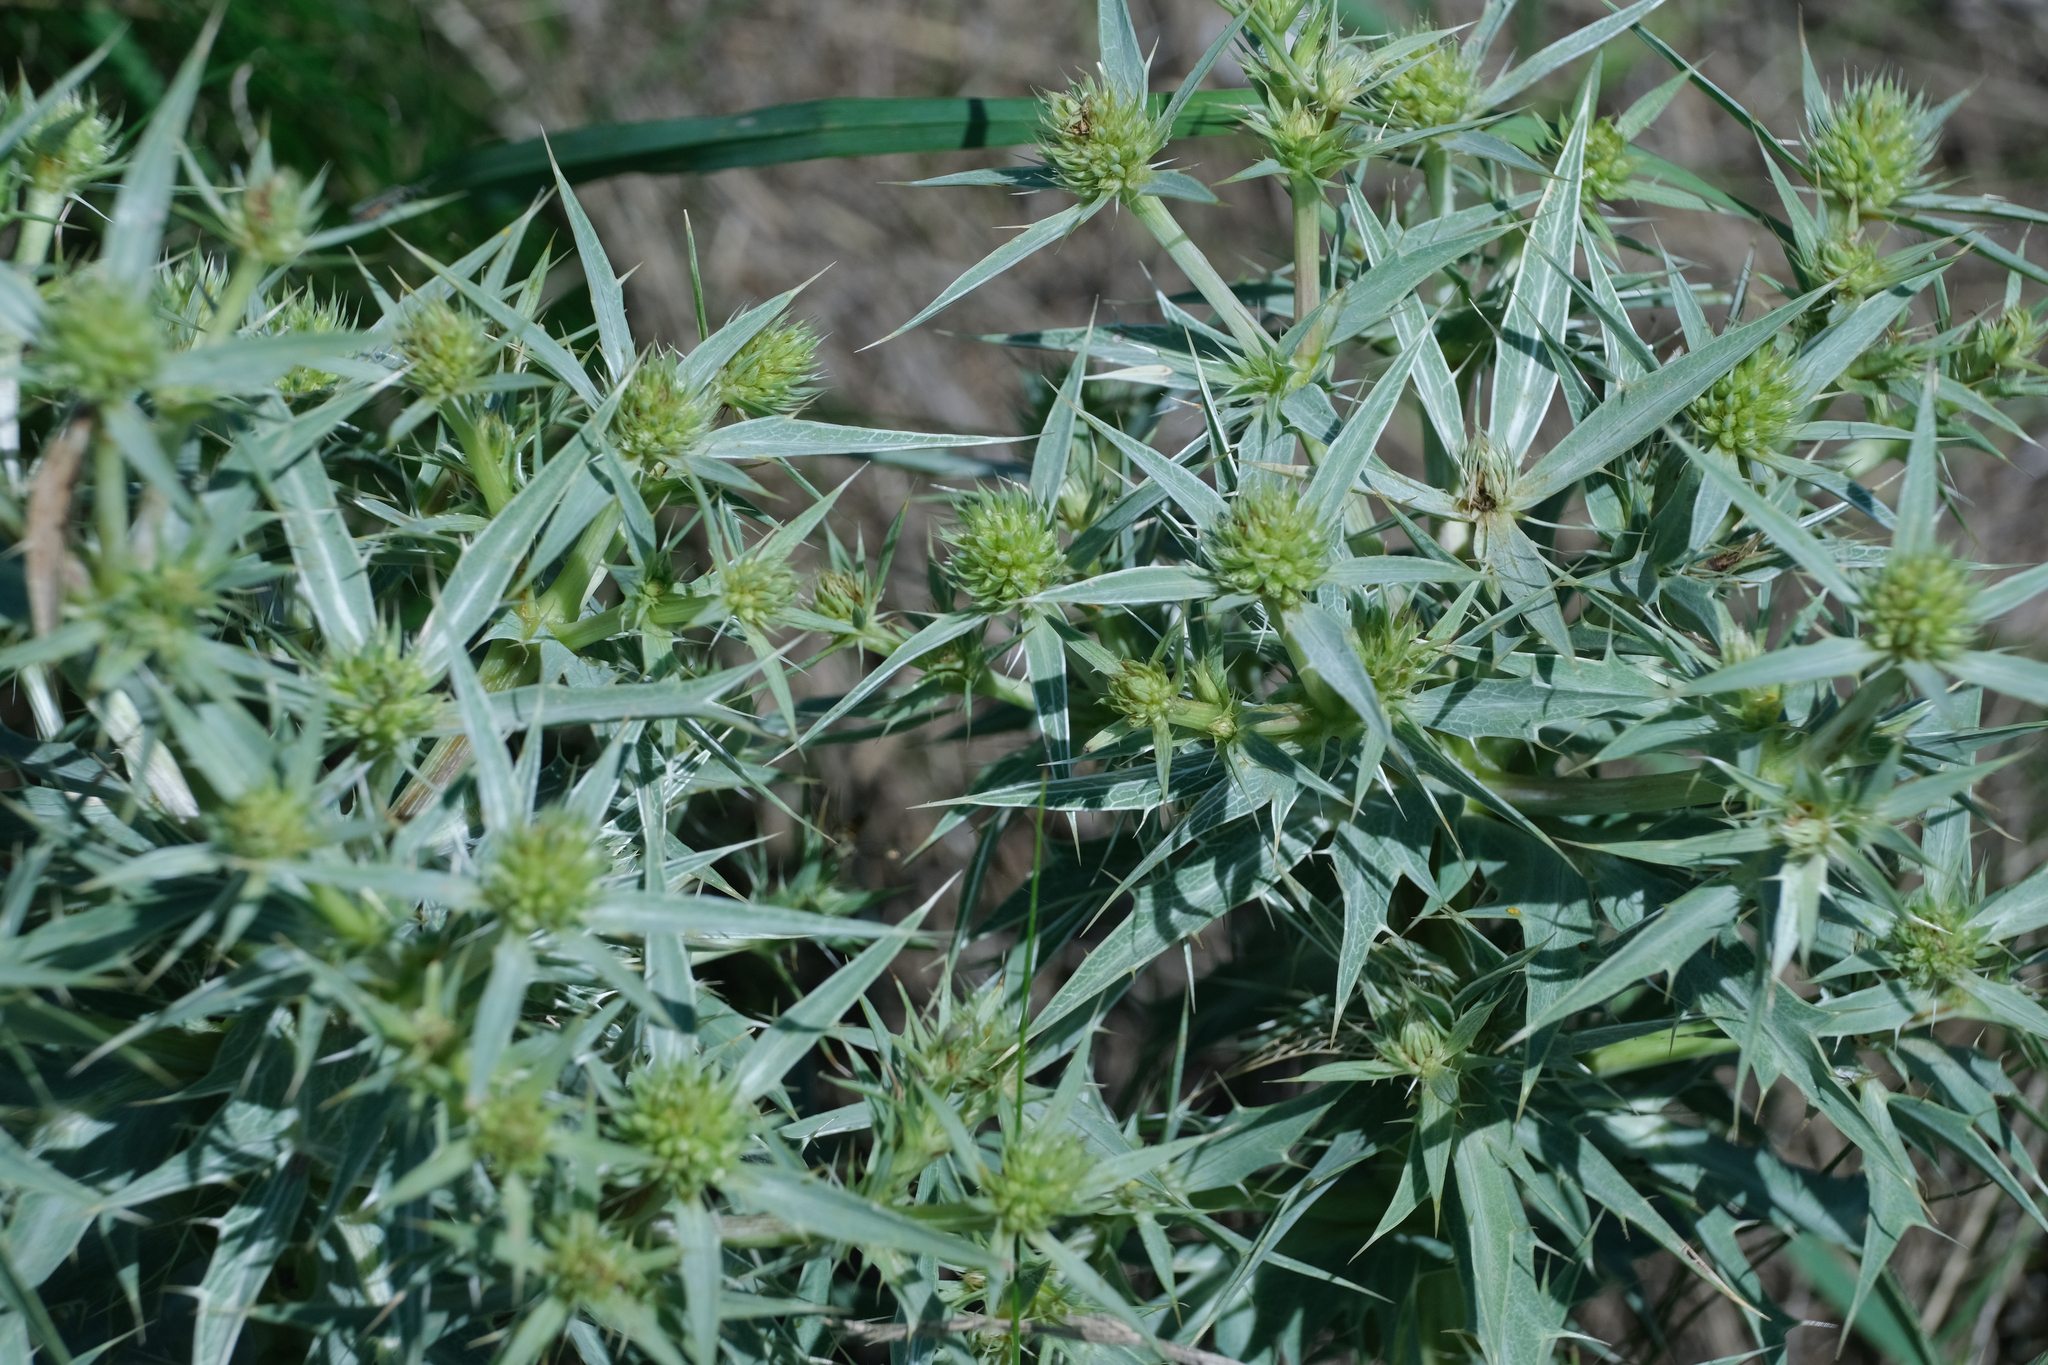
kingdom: Plantae
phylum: Tracheophyta
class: Magnoliopsida
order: Apiales
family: Apiaceae
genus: Eryngium
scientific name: Eryngium campestre
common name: Field eryngo
